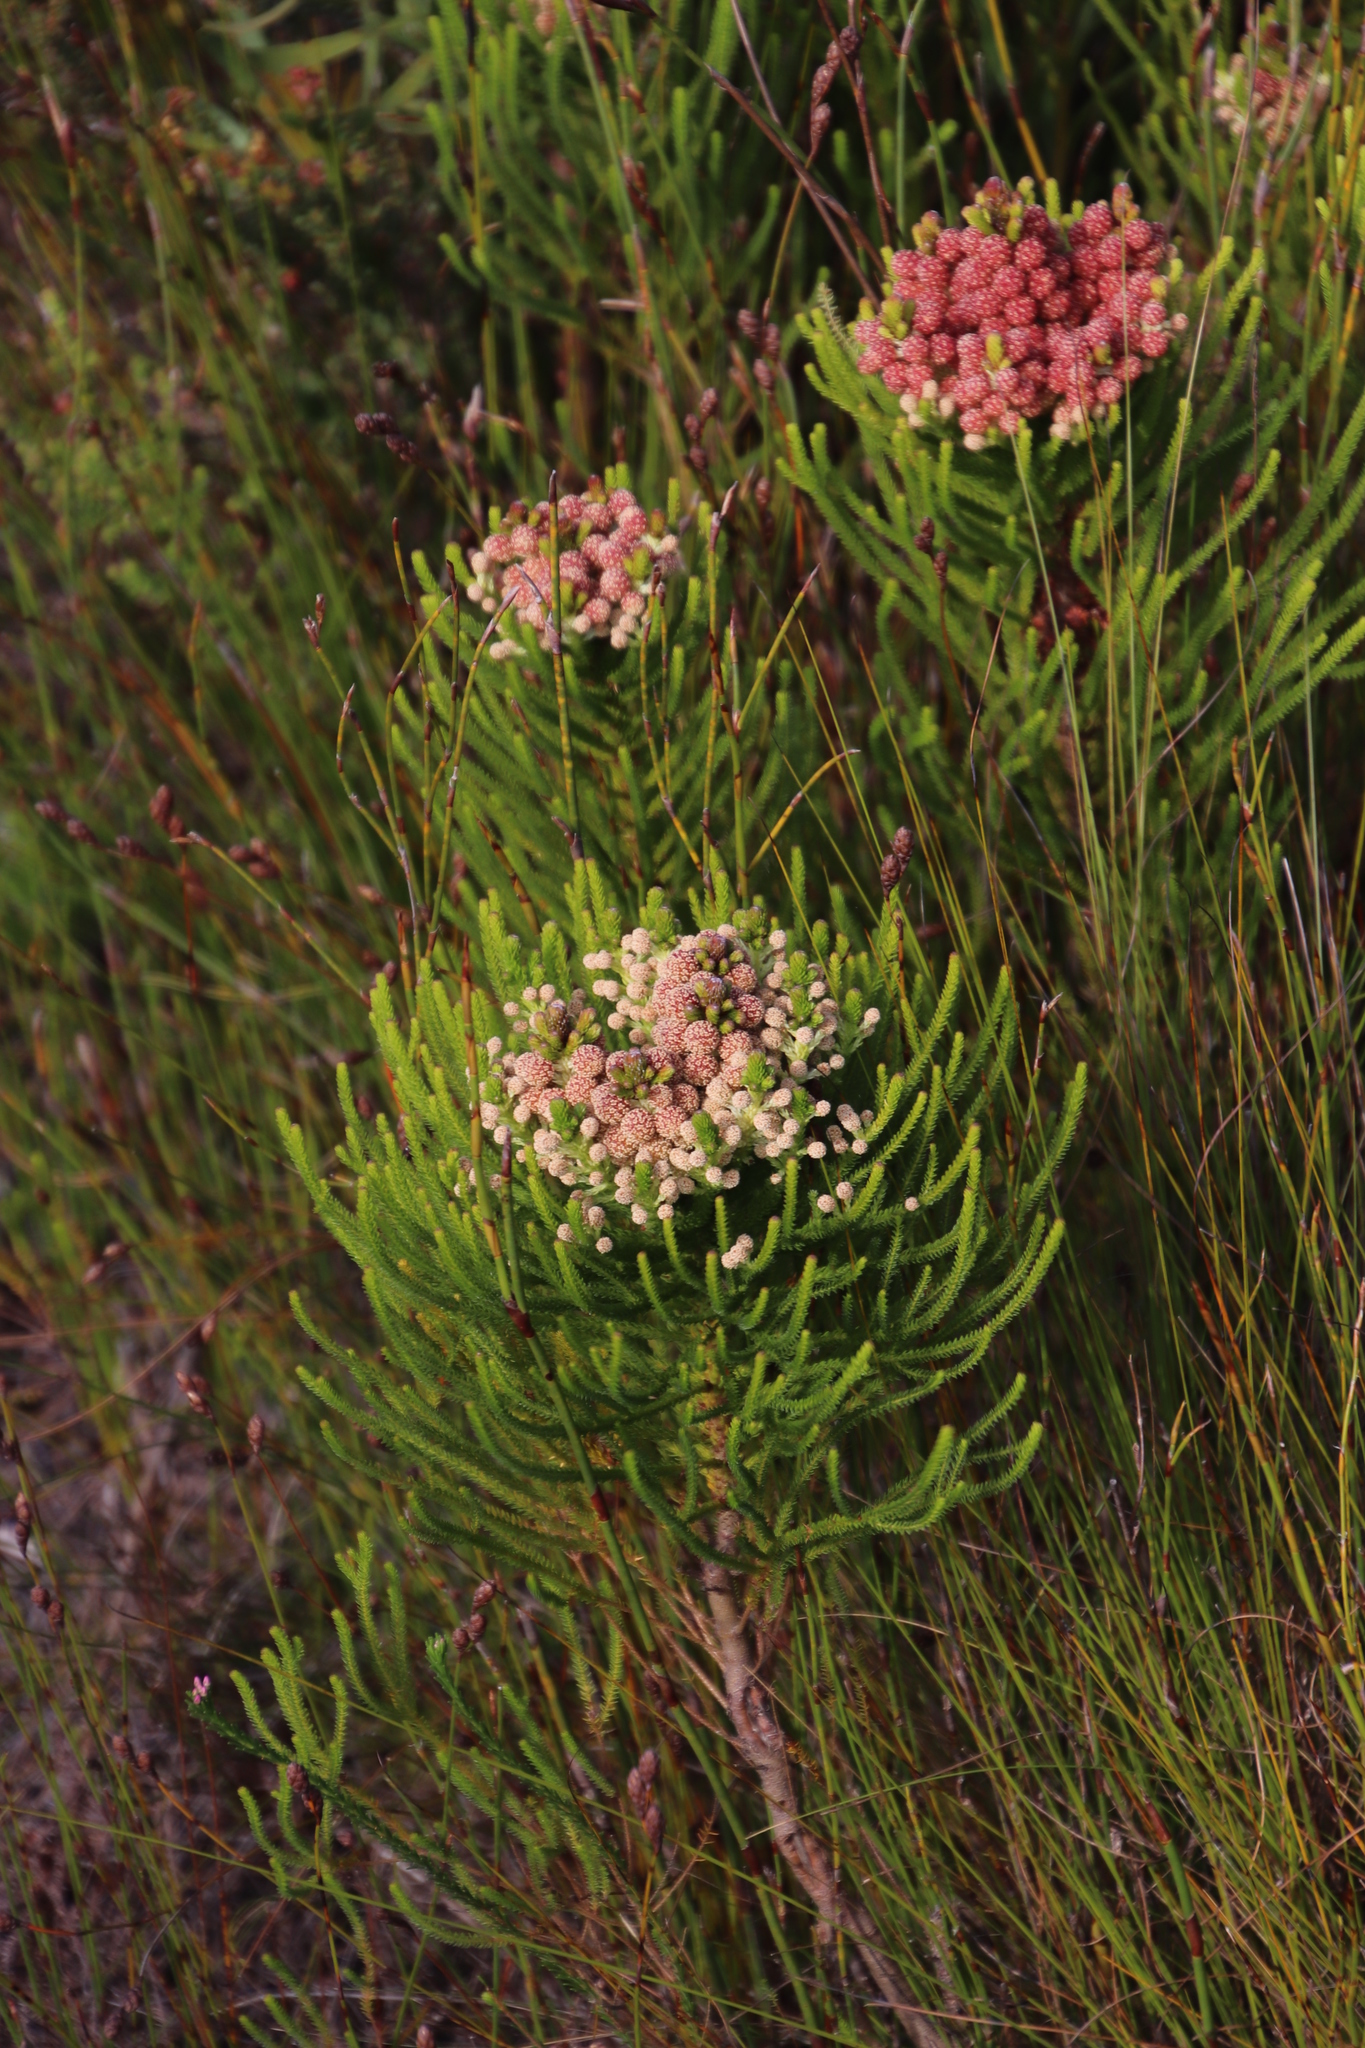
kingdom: Plantae
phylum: Tracheophyta
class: Magnoliopsida
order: Bruniales
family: Bruniaceae
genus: Berzelia
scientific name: Berzelia alopecurioides
